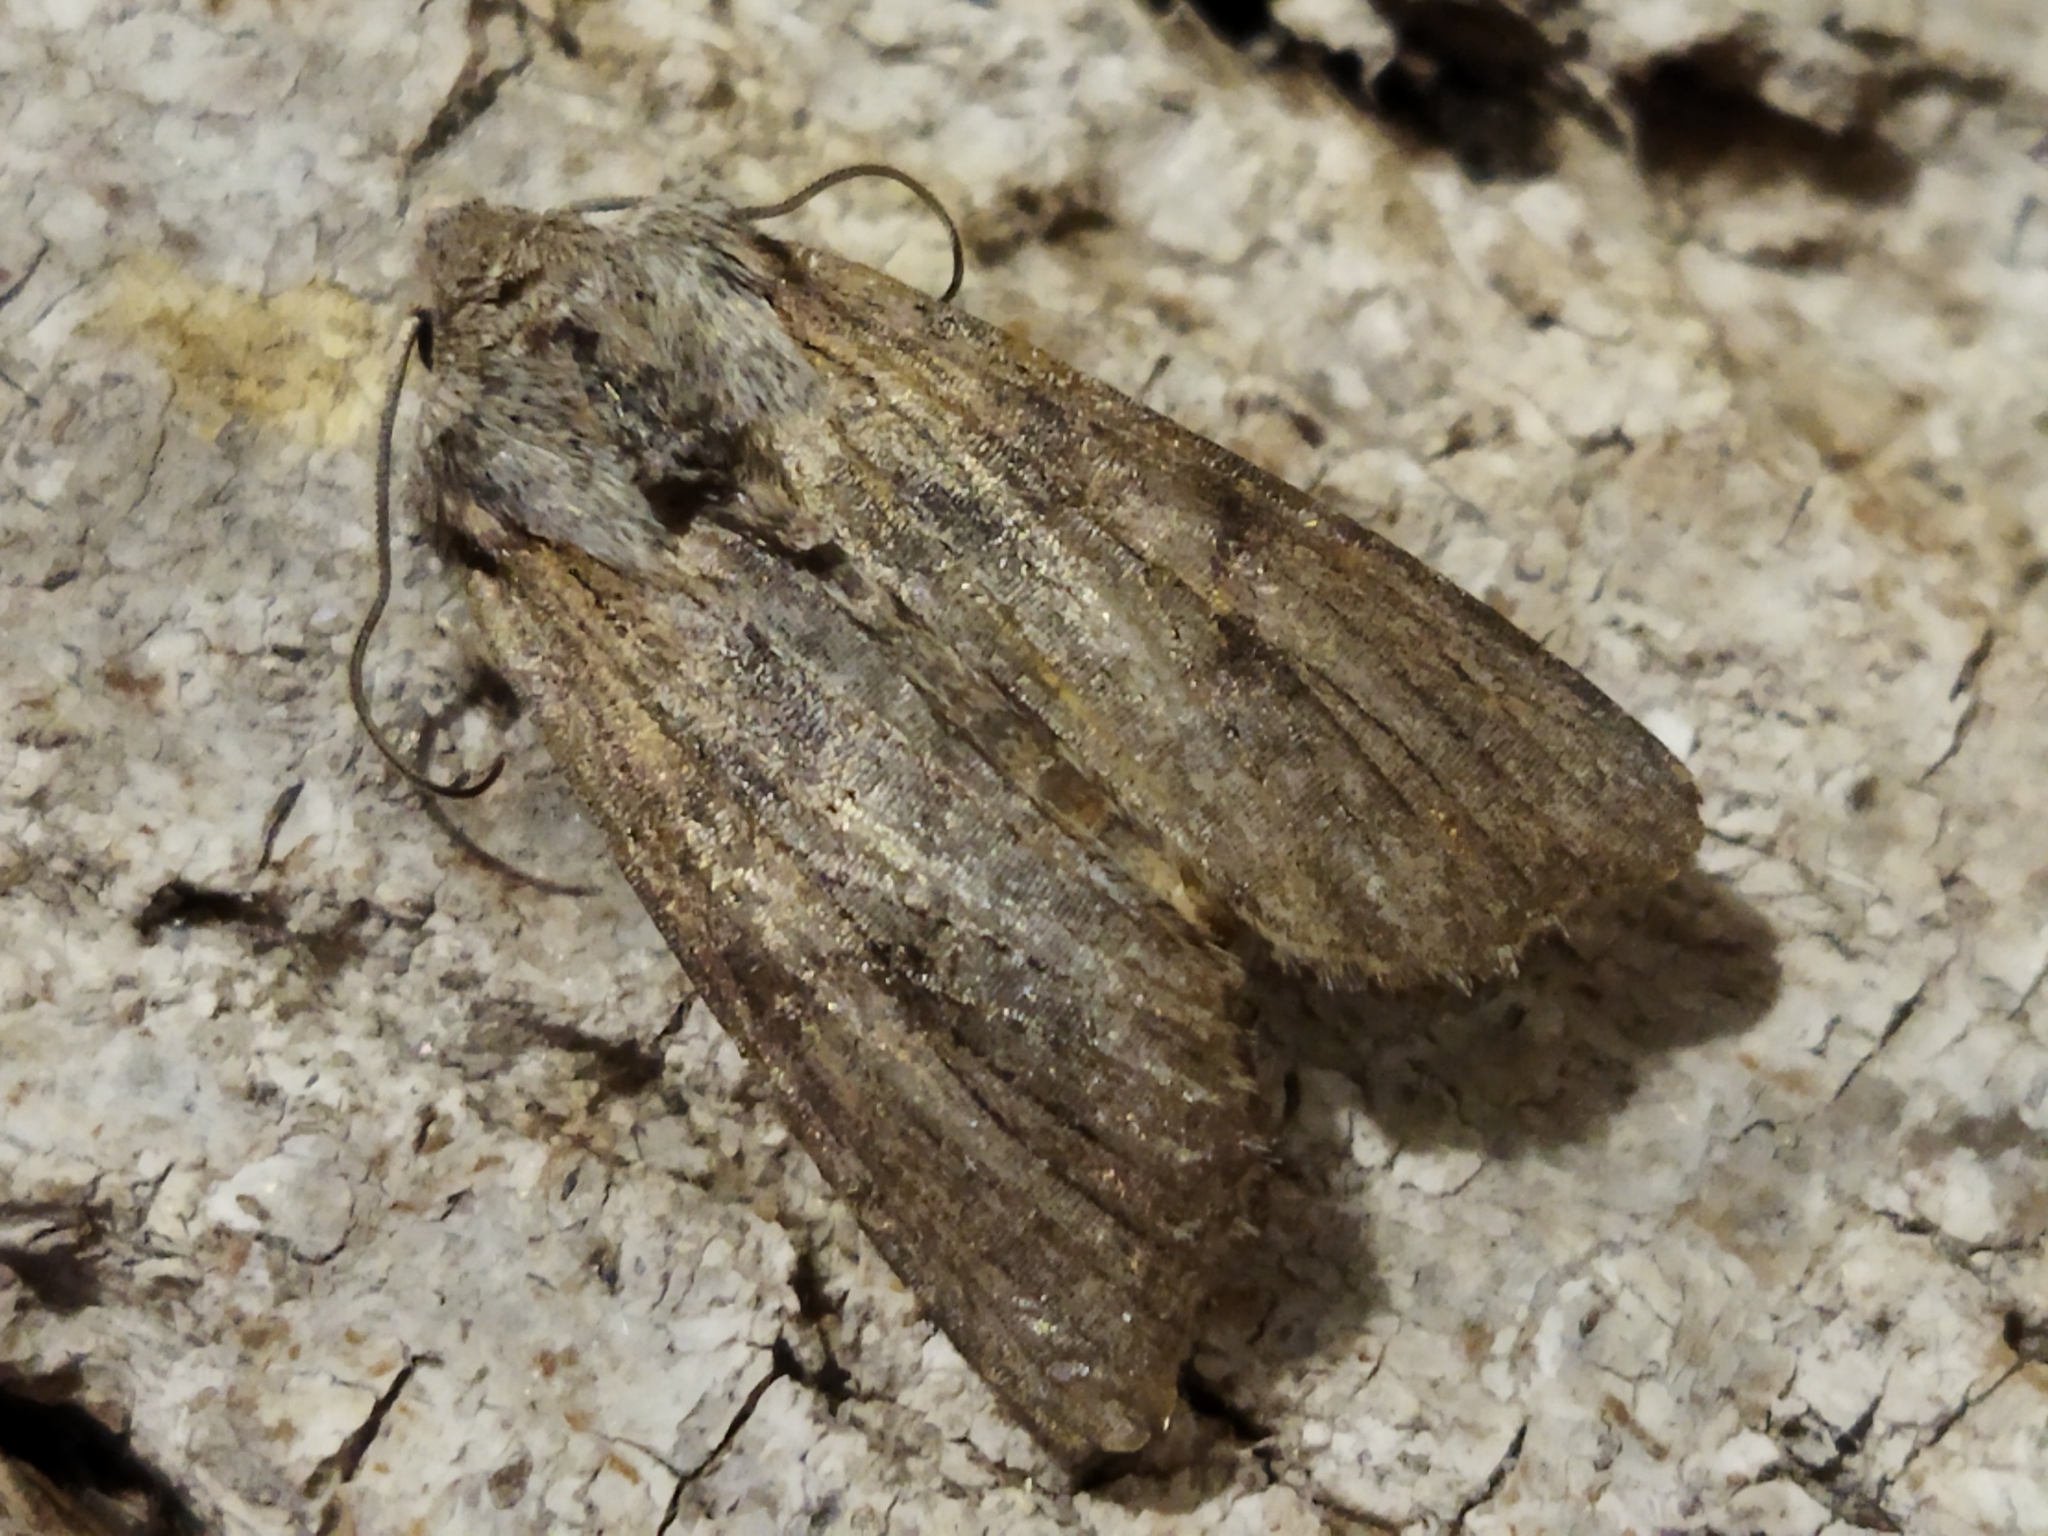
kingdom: Animalia
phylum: Arthropoda
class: Insecta
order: Lepidoptera
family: Noctuidae
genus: Egira
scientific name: Egira
